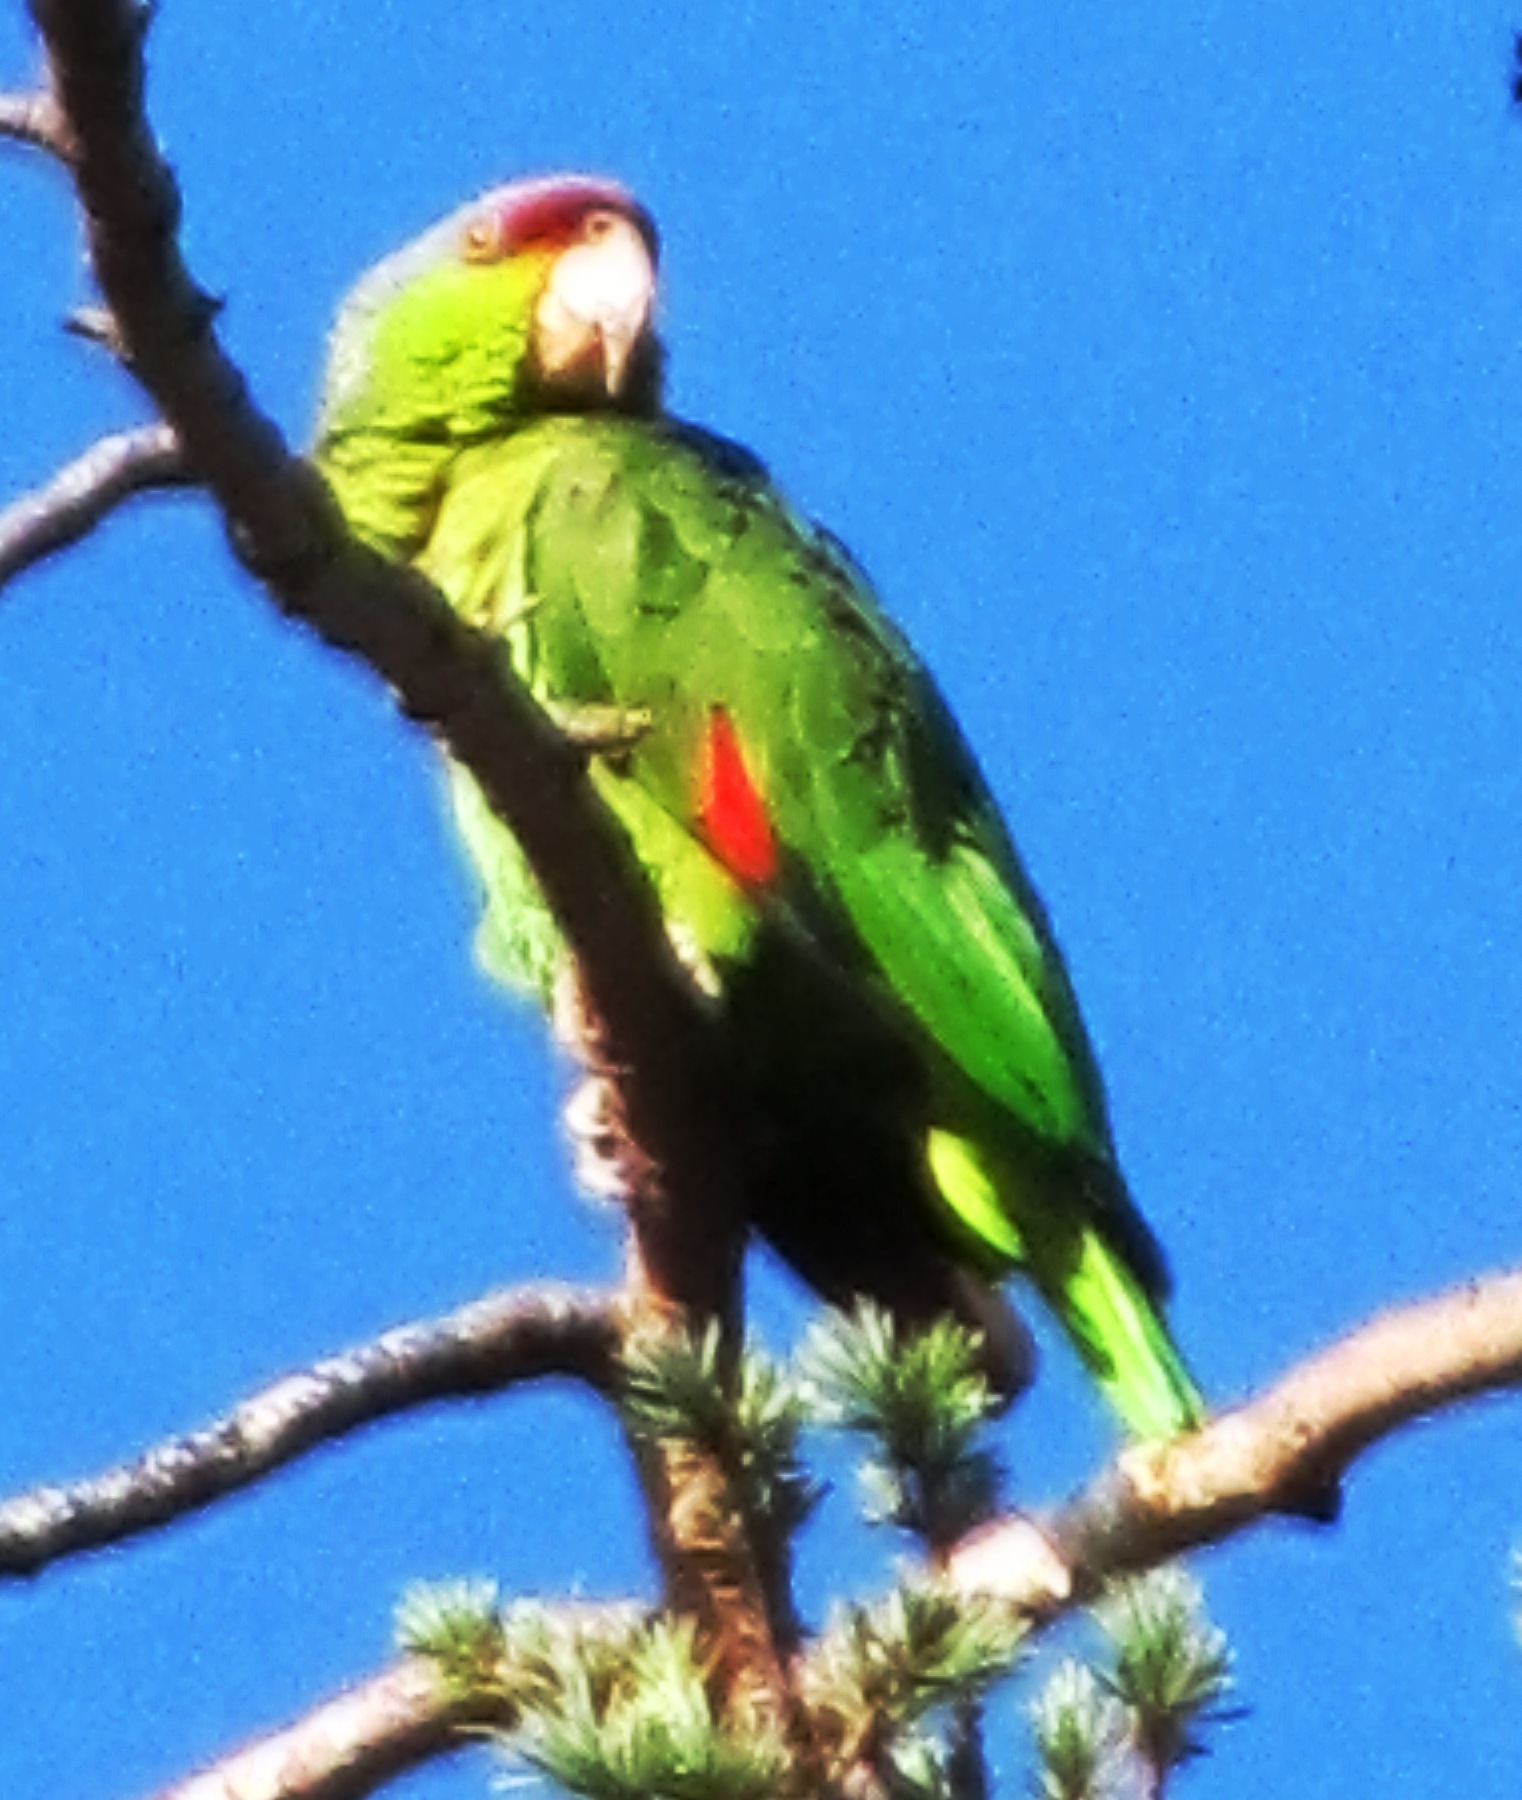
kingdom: Animalia
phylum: Chordata
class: Aves
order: Psittaciformes
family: Psittacidae
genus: Amazona
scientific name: Amazona finschi
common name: Lilac-crowned amazon
